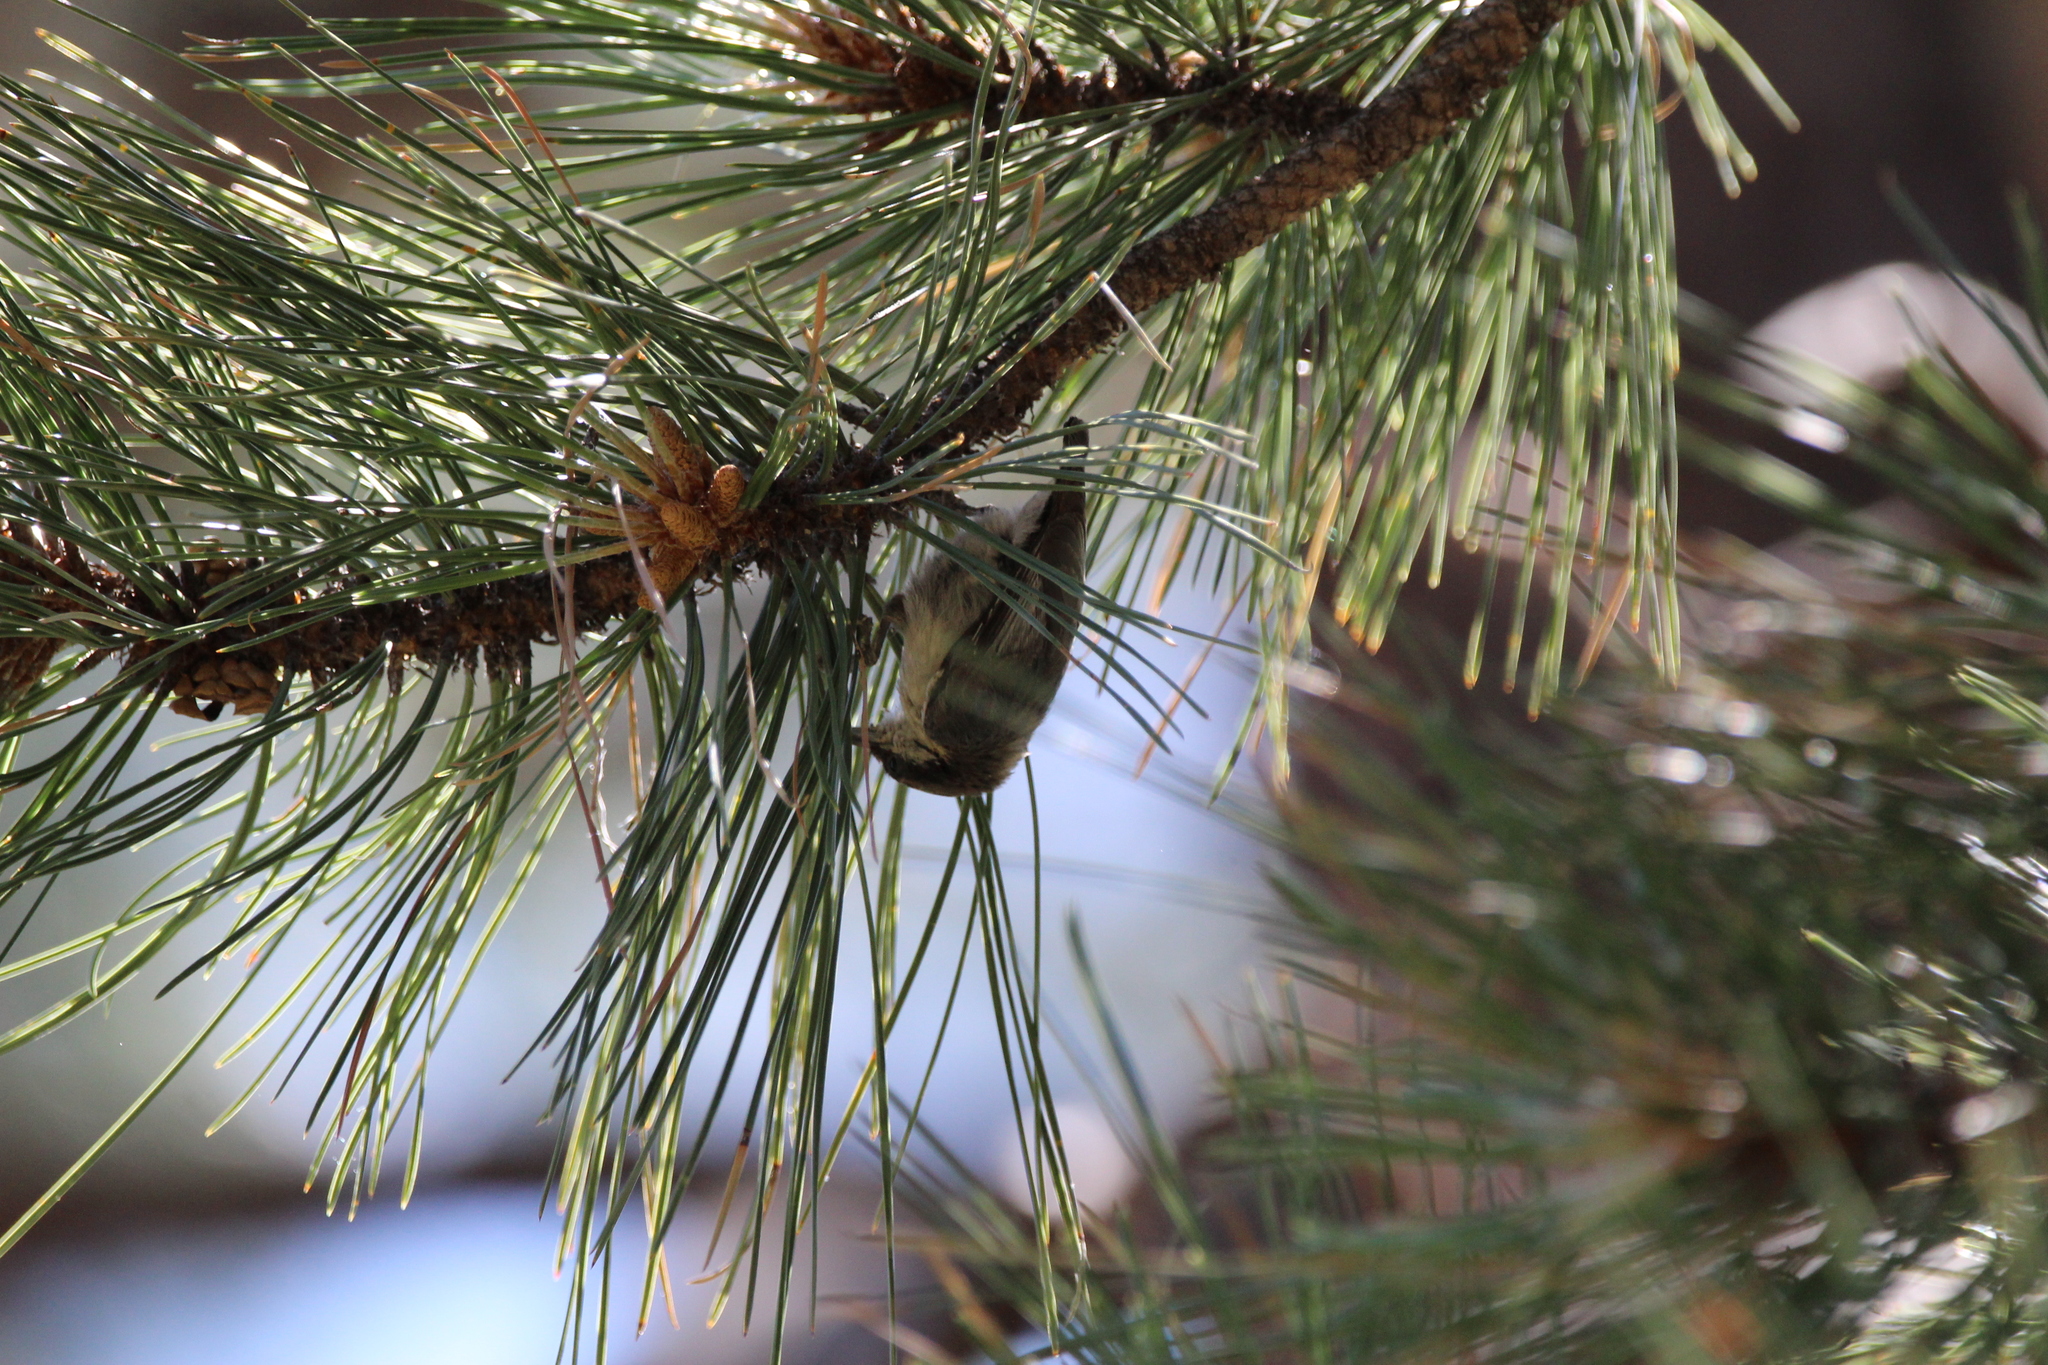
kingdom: Animalia
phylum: Chordata
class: Aves
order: Passeriformes
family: Sittidae
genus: Sitta
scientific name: Sitta pygmaea
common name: Pygmy nuthatch
